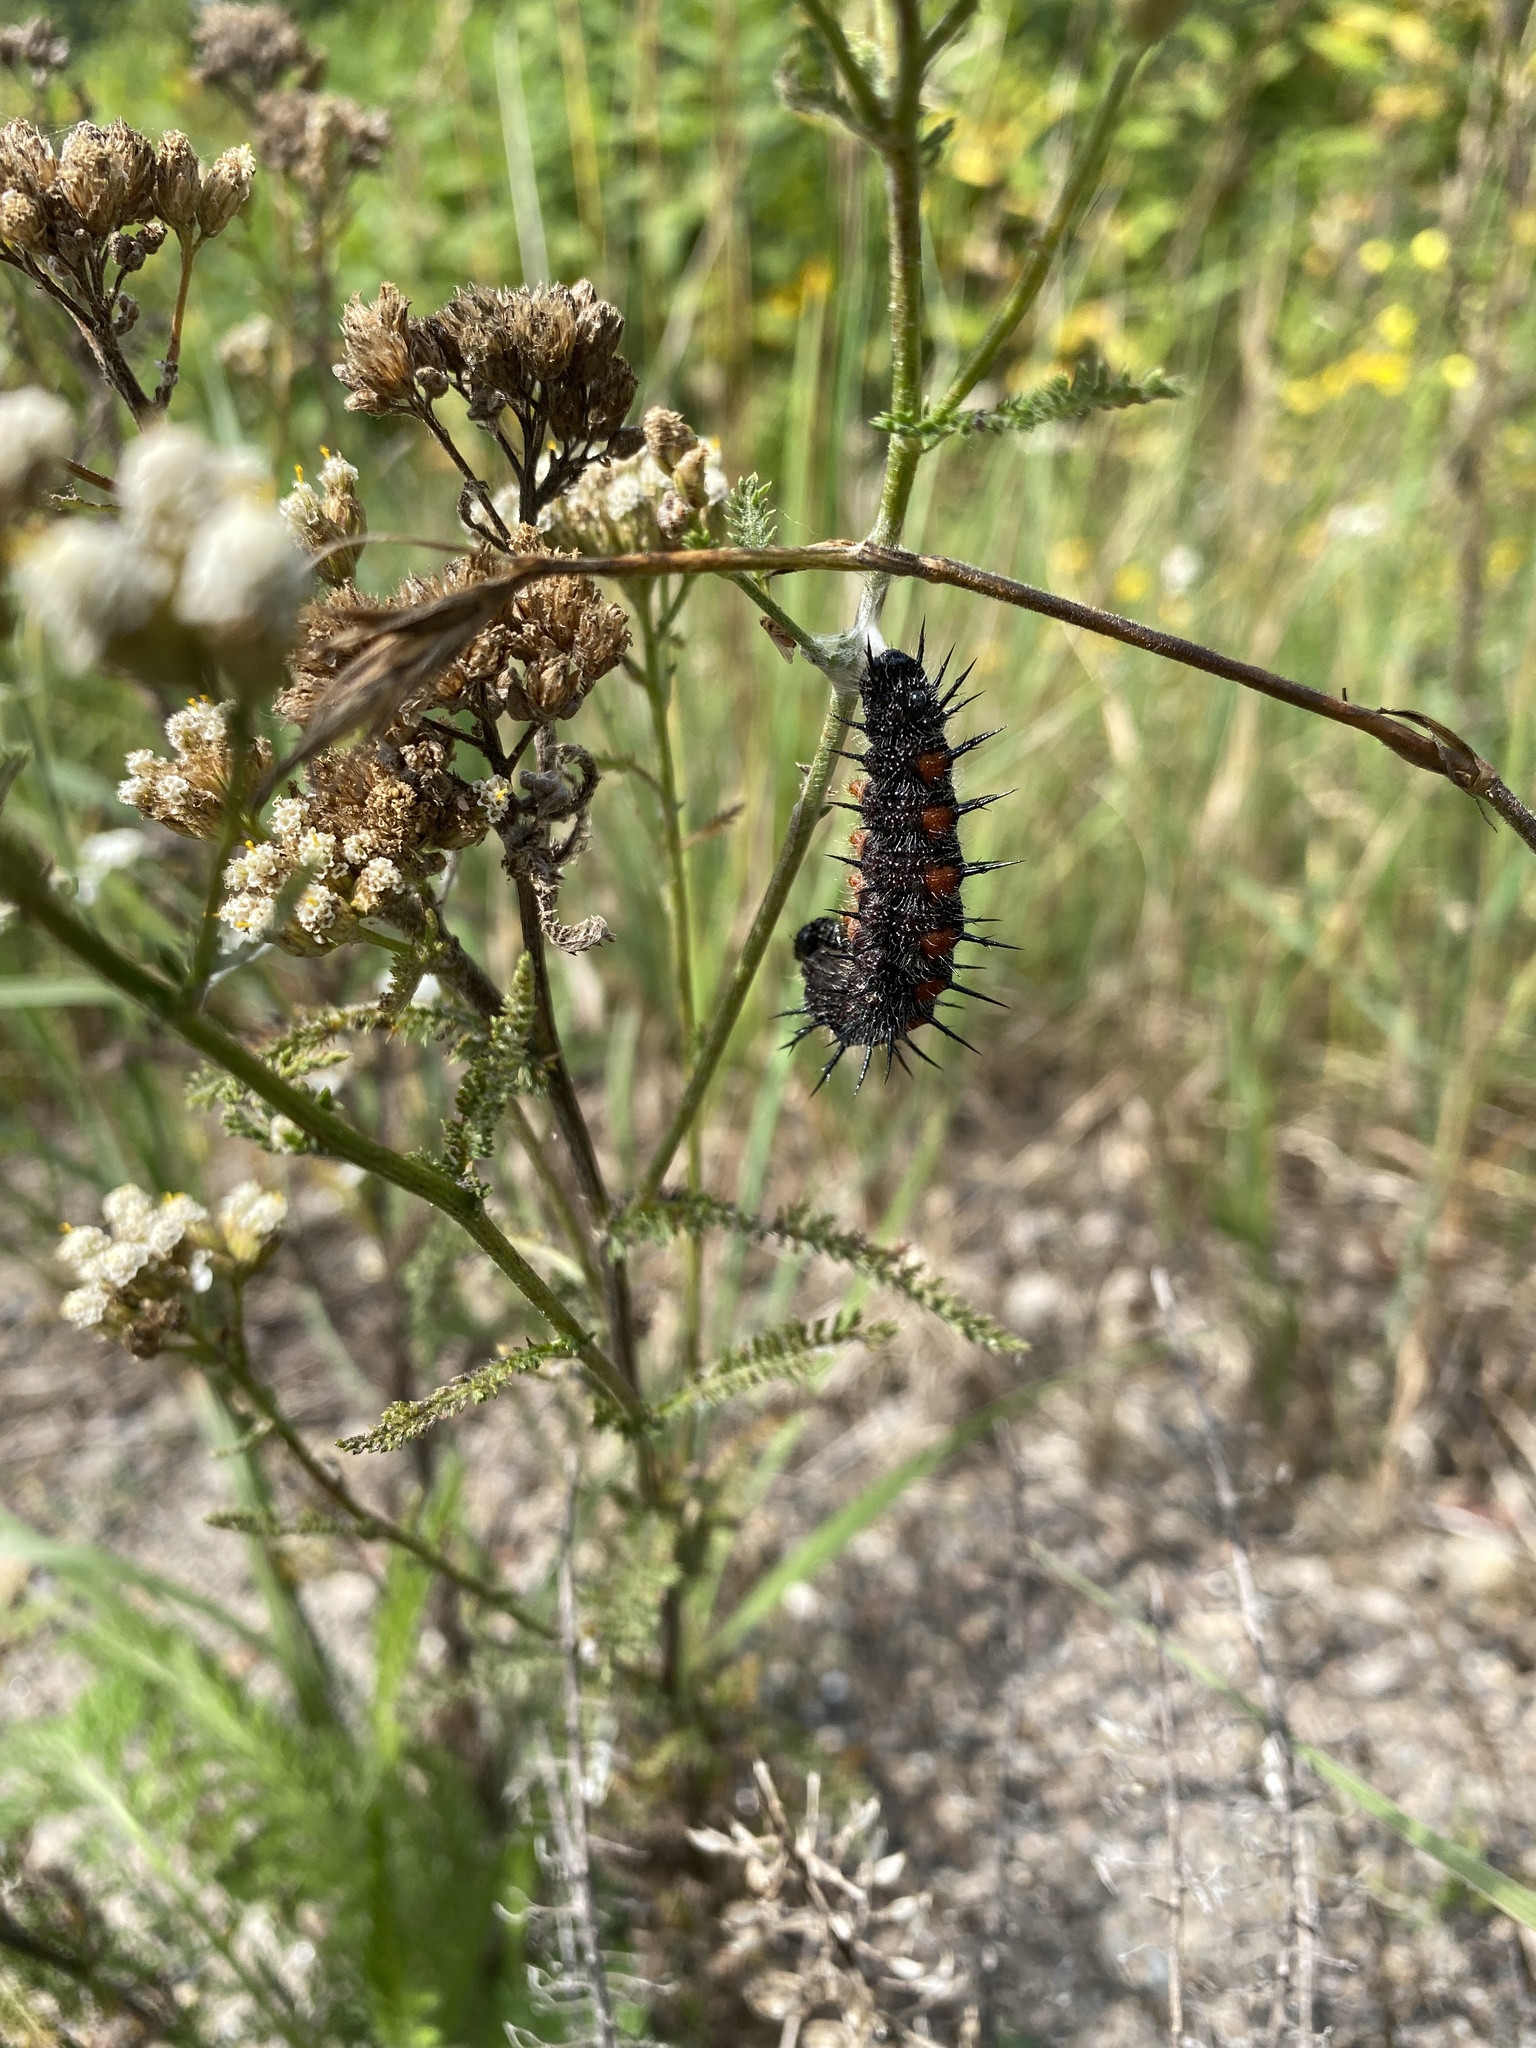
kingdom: Animalia
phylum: Arthropoda
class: Insecta
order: Lepidoptera
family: Nymphalidae
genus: Nymphalis
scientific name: Nymphalis antiopa
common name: Camberwell beauty
